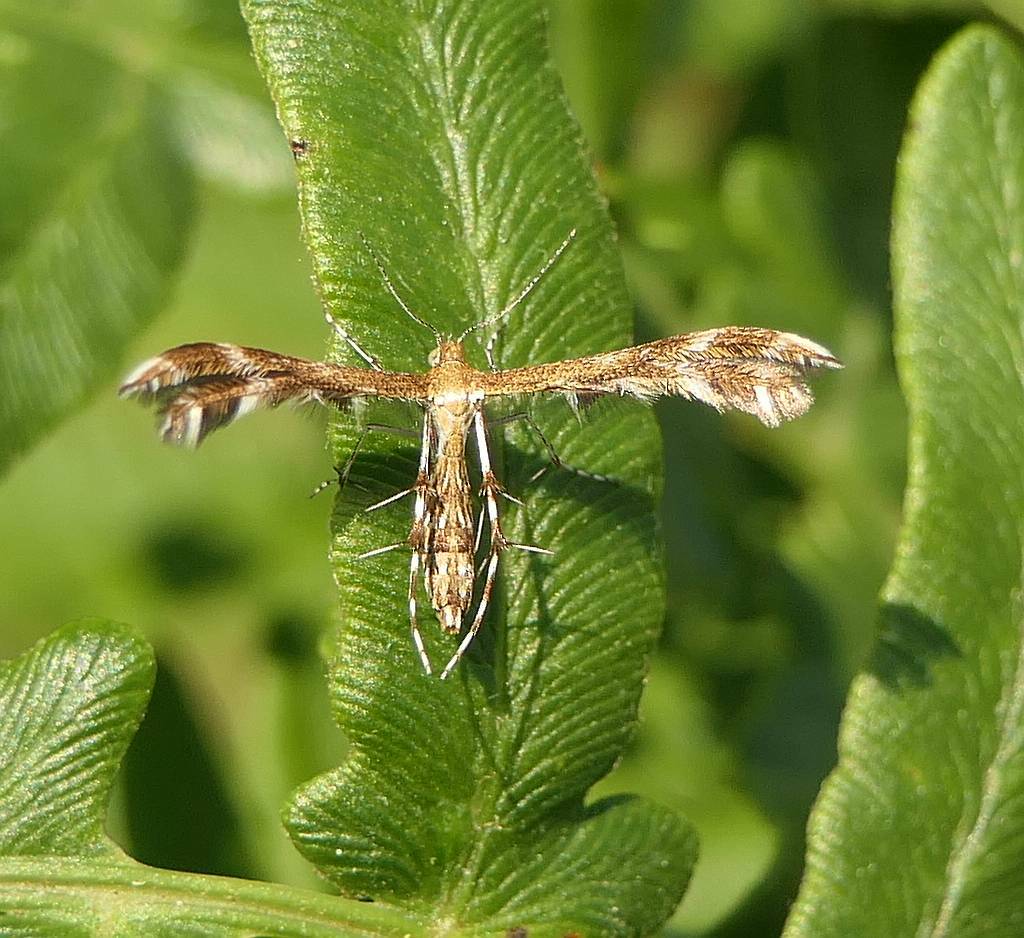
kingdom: Animalia
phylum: Arthropoda
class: Insecta
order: Lepidoptera
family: Pterophoridae
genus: Dejongia
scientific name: Dejongia lobidactylus
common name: Lobed plume moth
